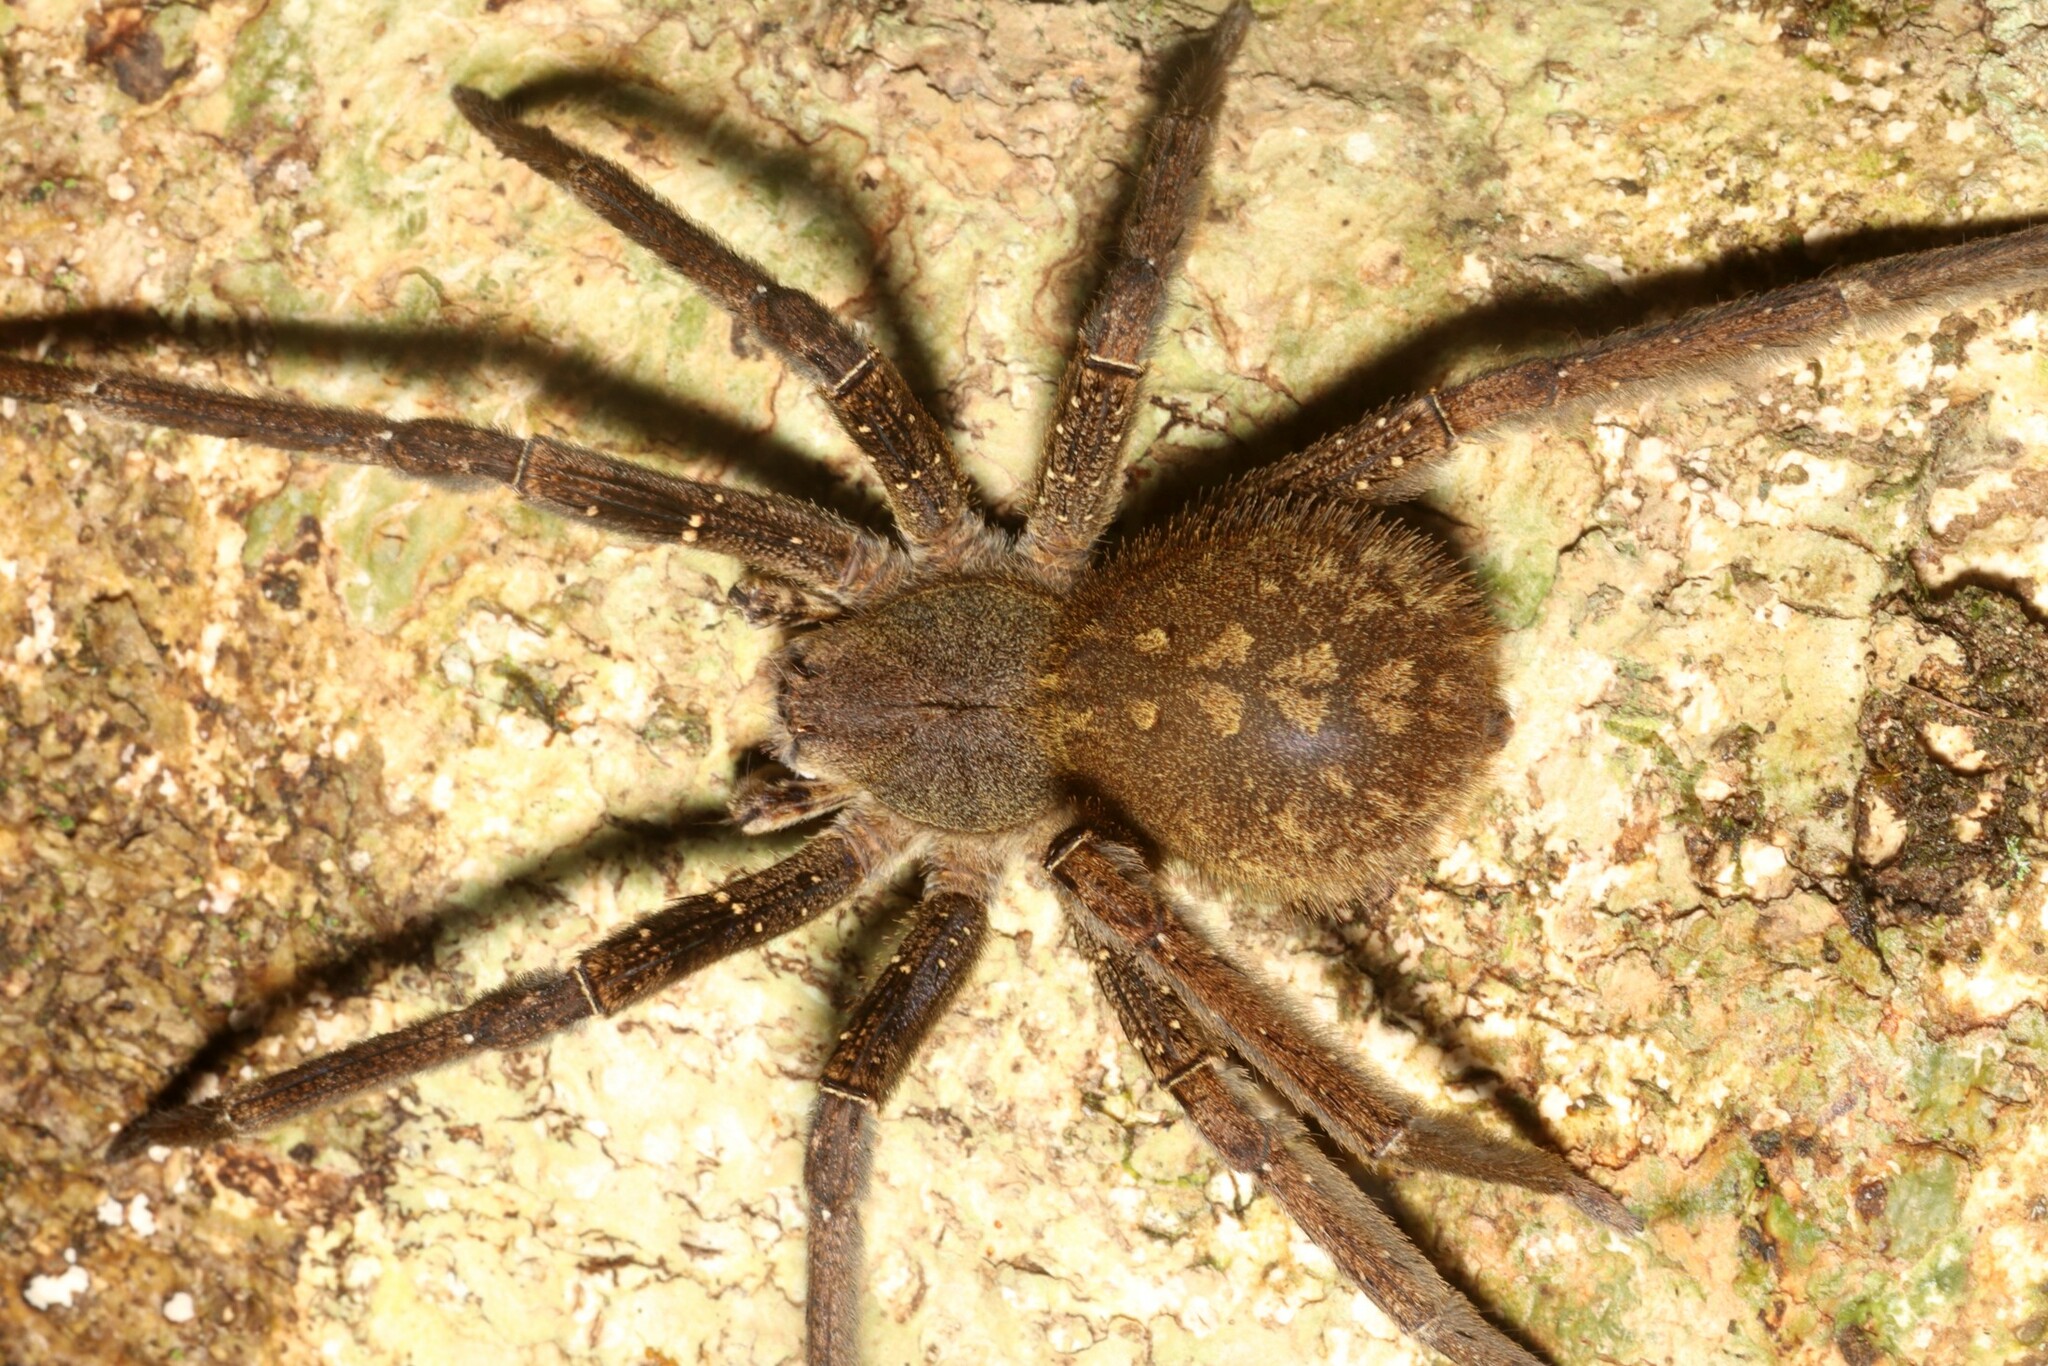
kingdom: Animalia
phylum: Arthropoda
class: Arachnida
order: Araneae
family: Ctenidae
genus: Phoneutria
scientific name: Phoneutria fera
